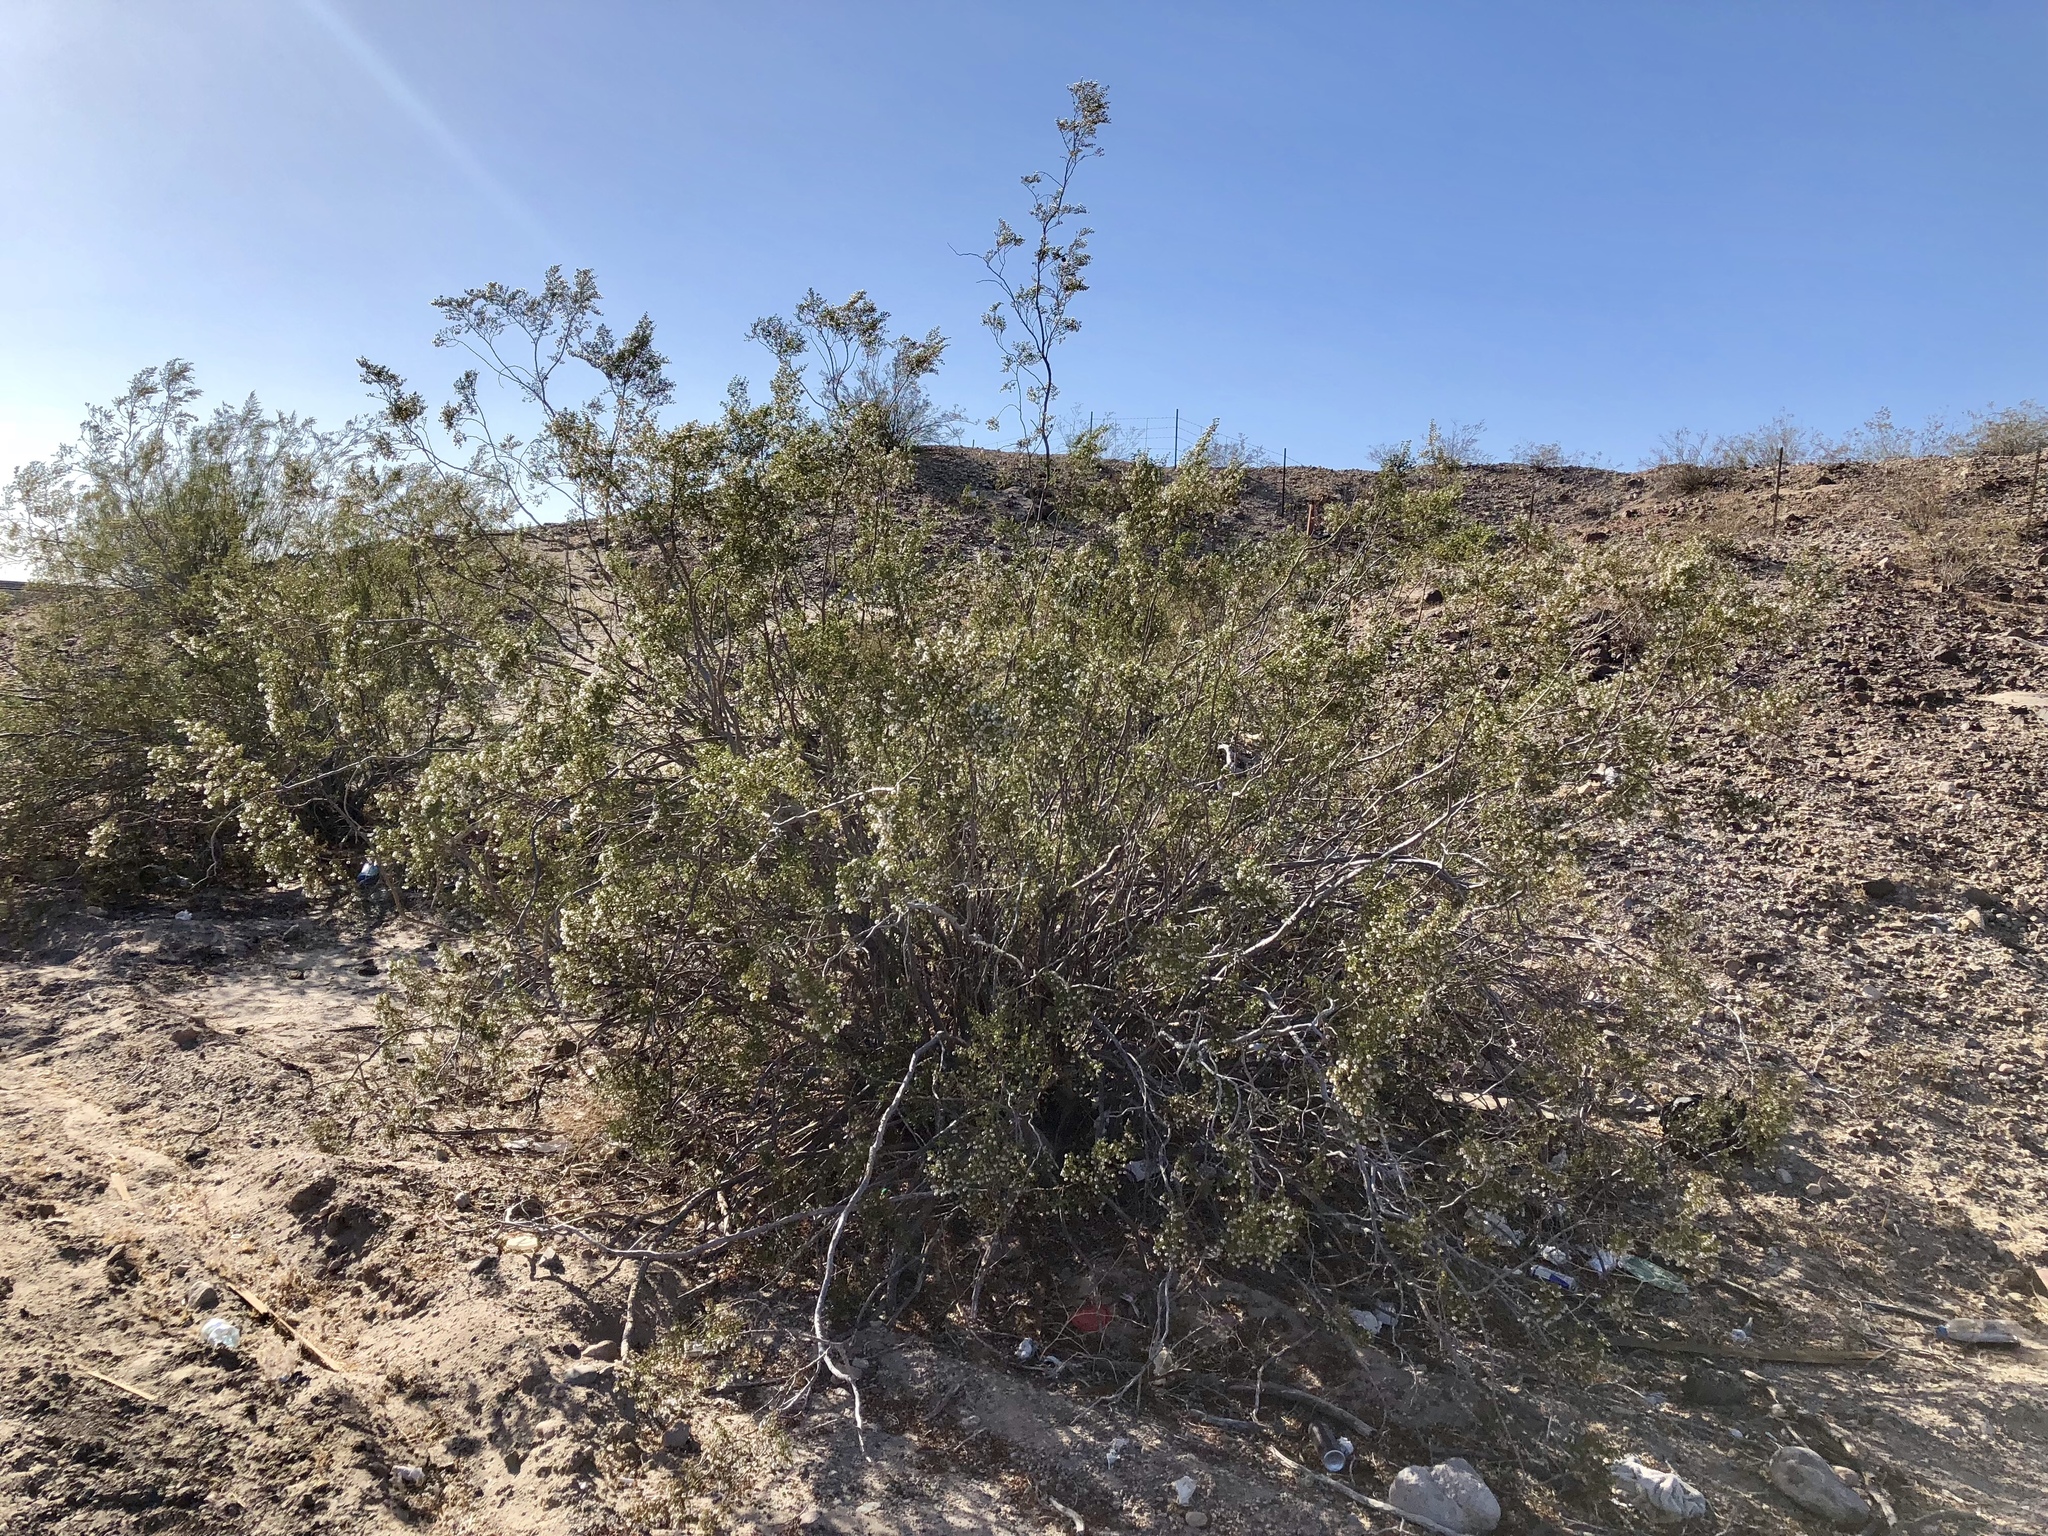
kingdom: Plantae
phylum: Tracheophyta
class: Magnoliopsida
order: Zygophyllales
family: Zygophyllaceae
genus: Larrea
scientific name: Larrea tridentata
